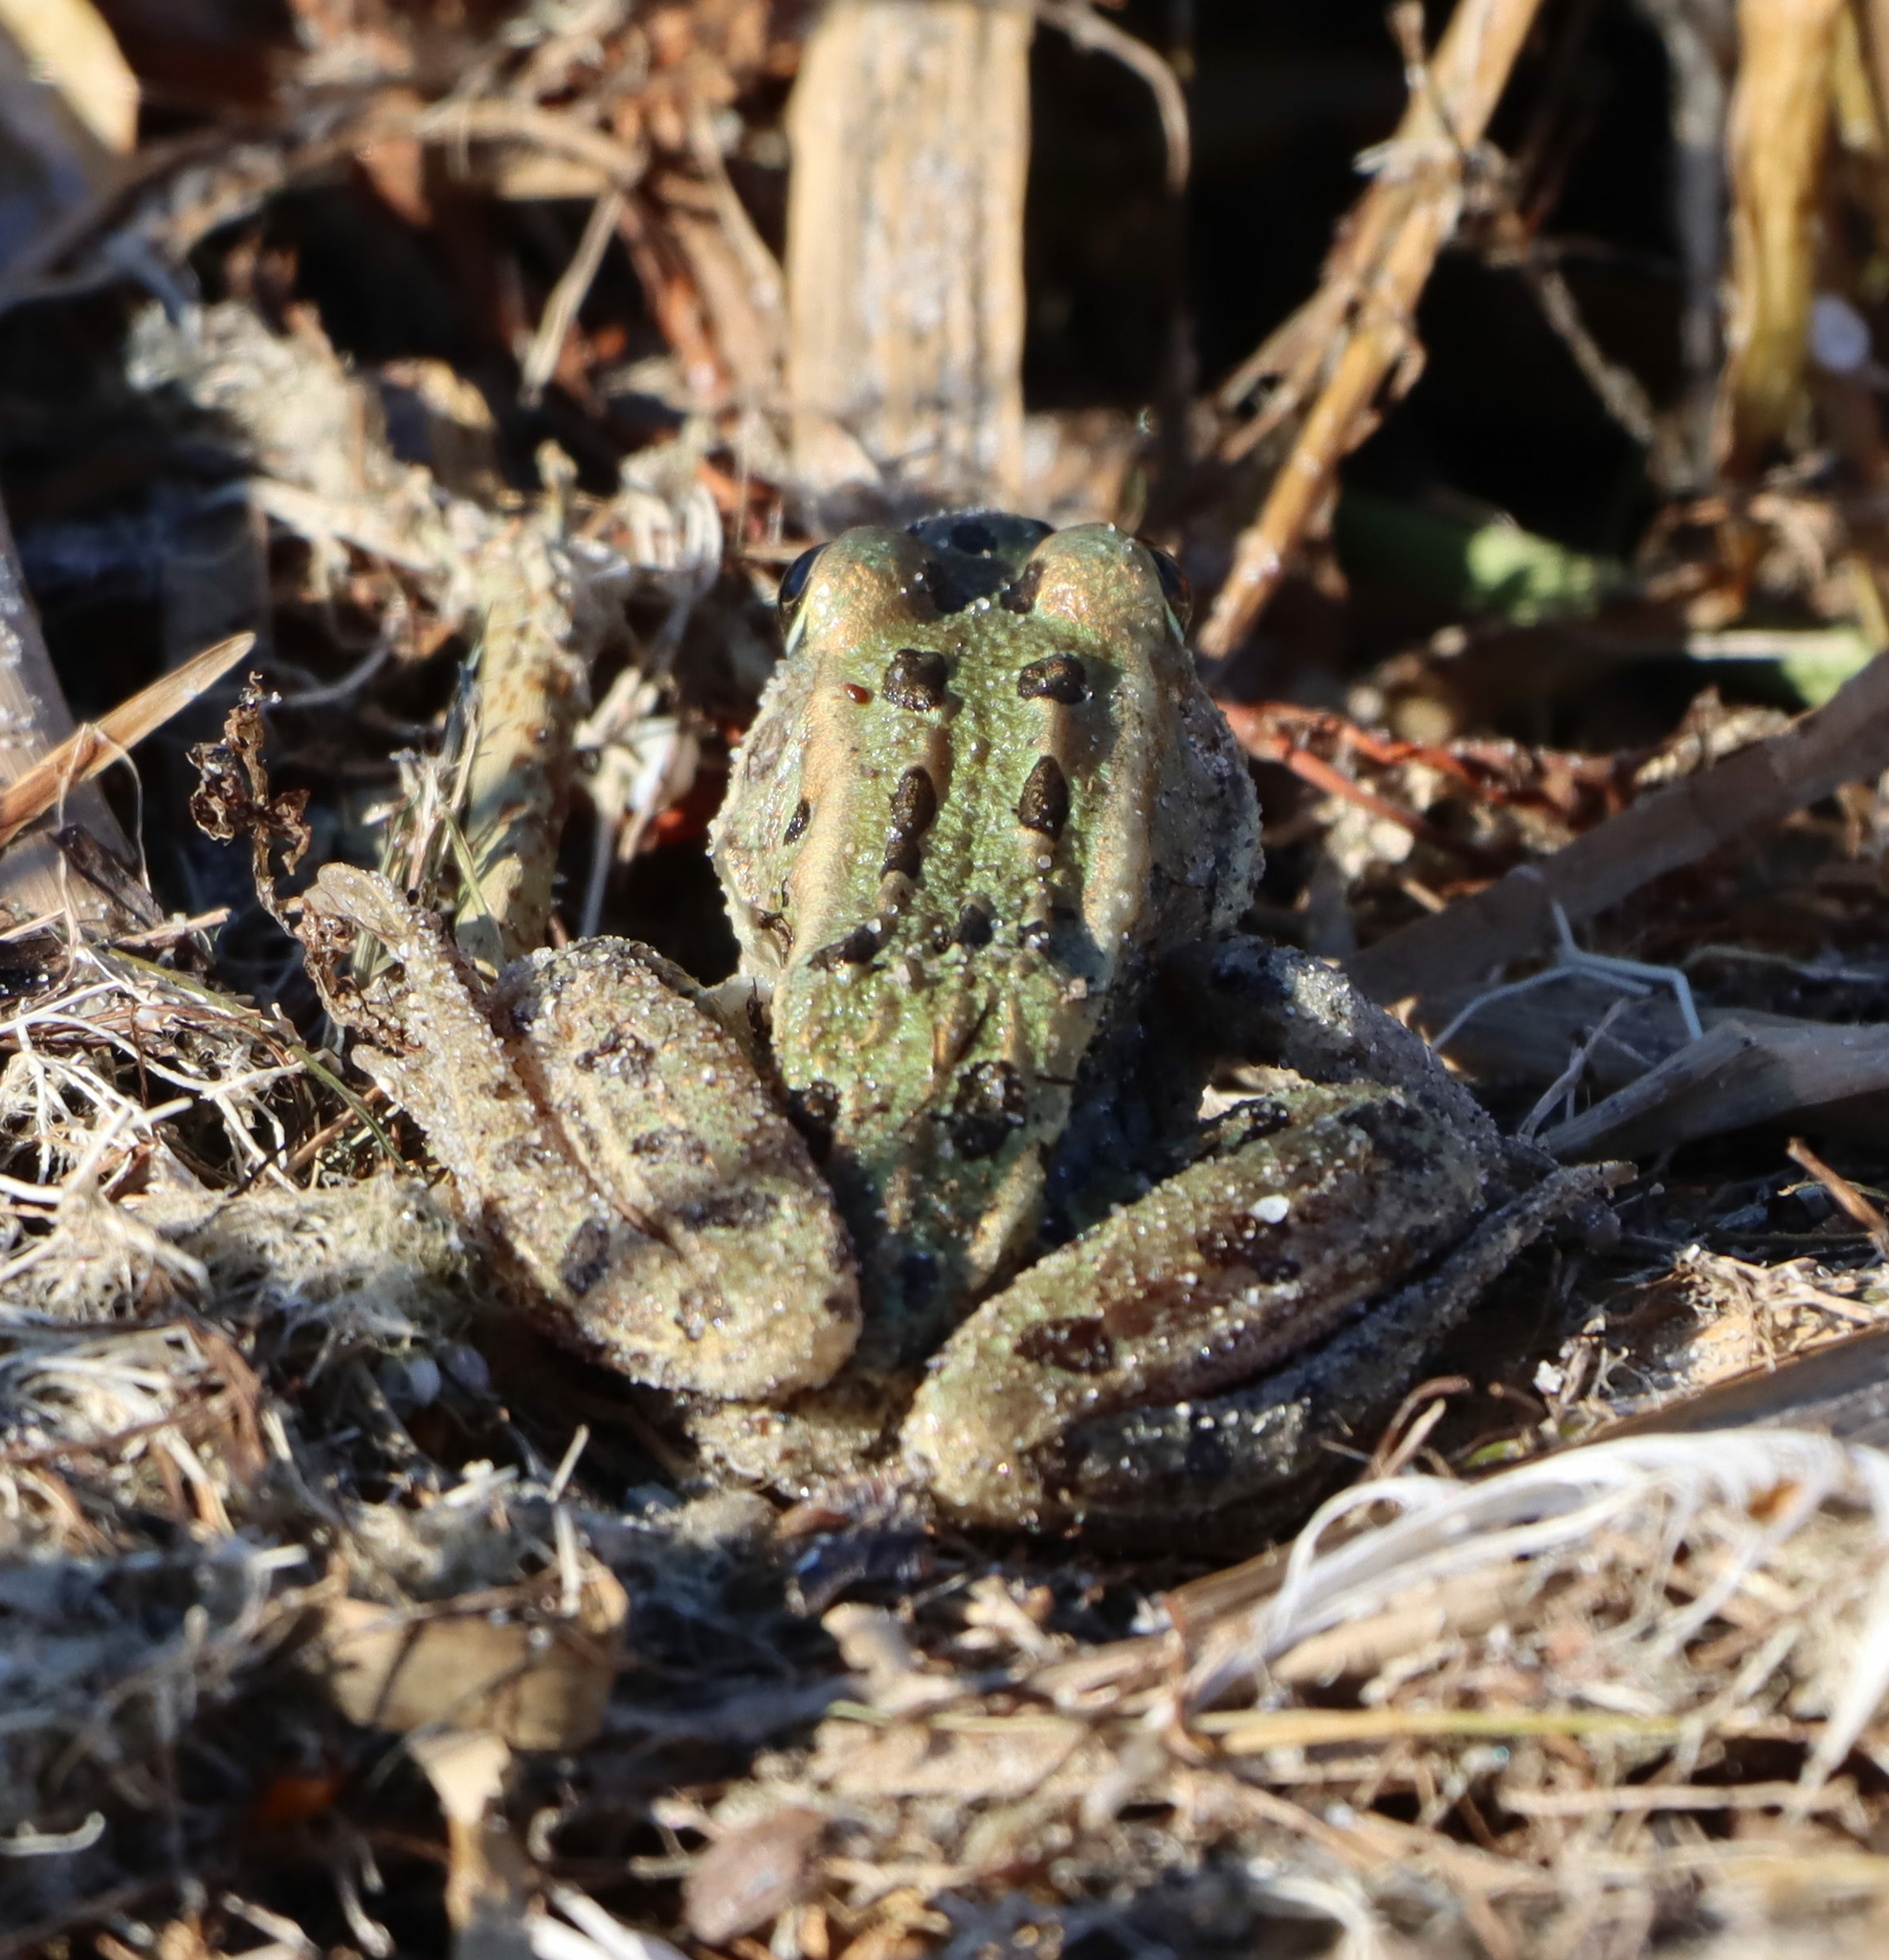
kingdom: Animalia
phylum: Chordata
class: Amphibia
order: Anura
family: Ranidae
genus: Lithobates
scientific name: Lithobates pipiens
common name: Northern leopard frog
